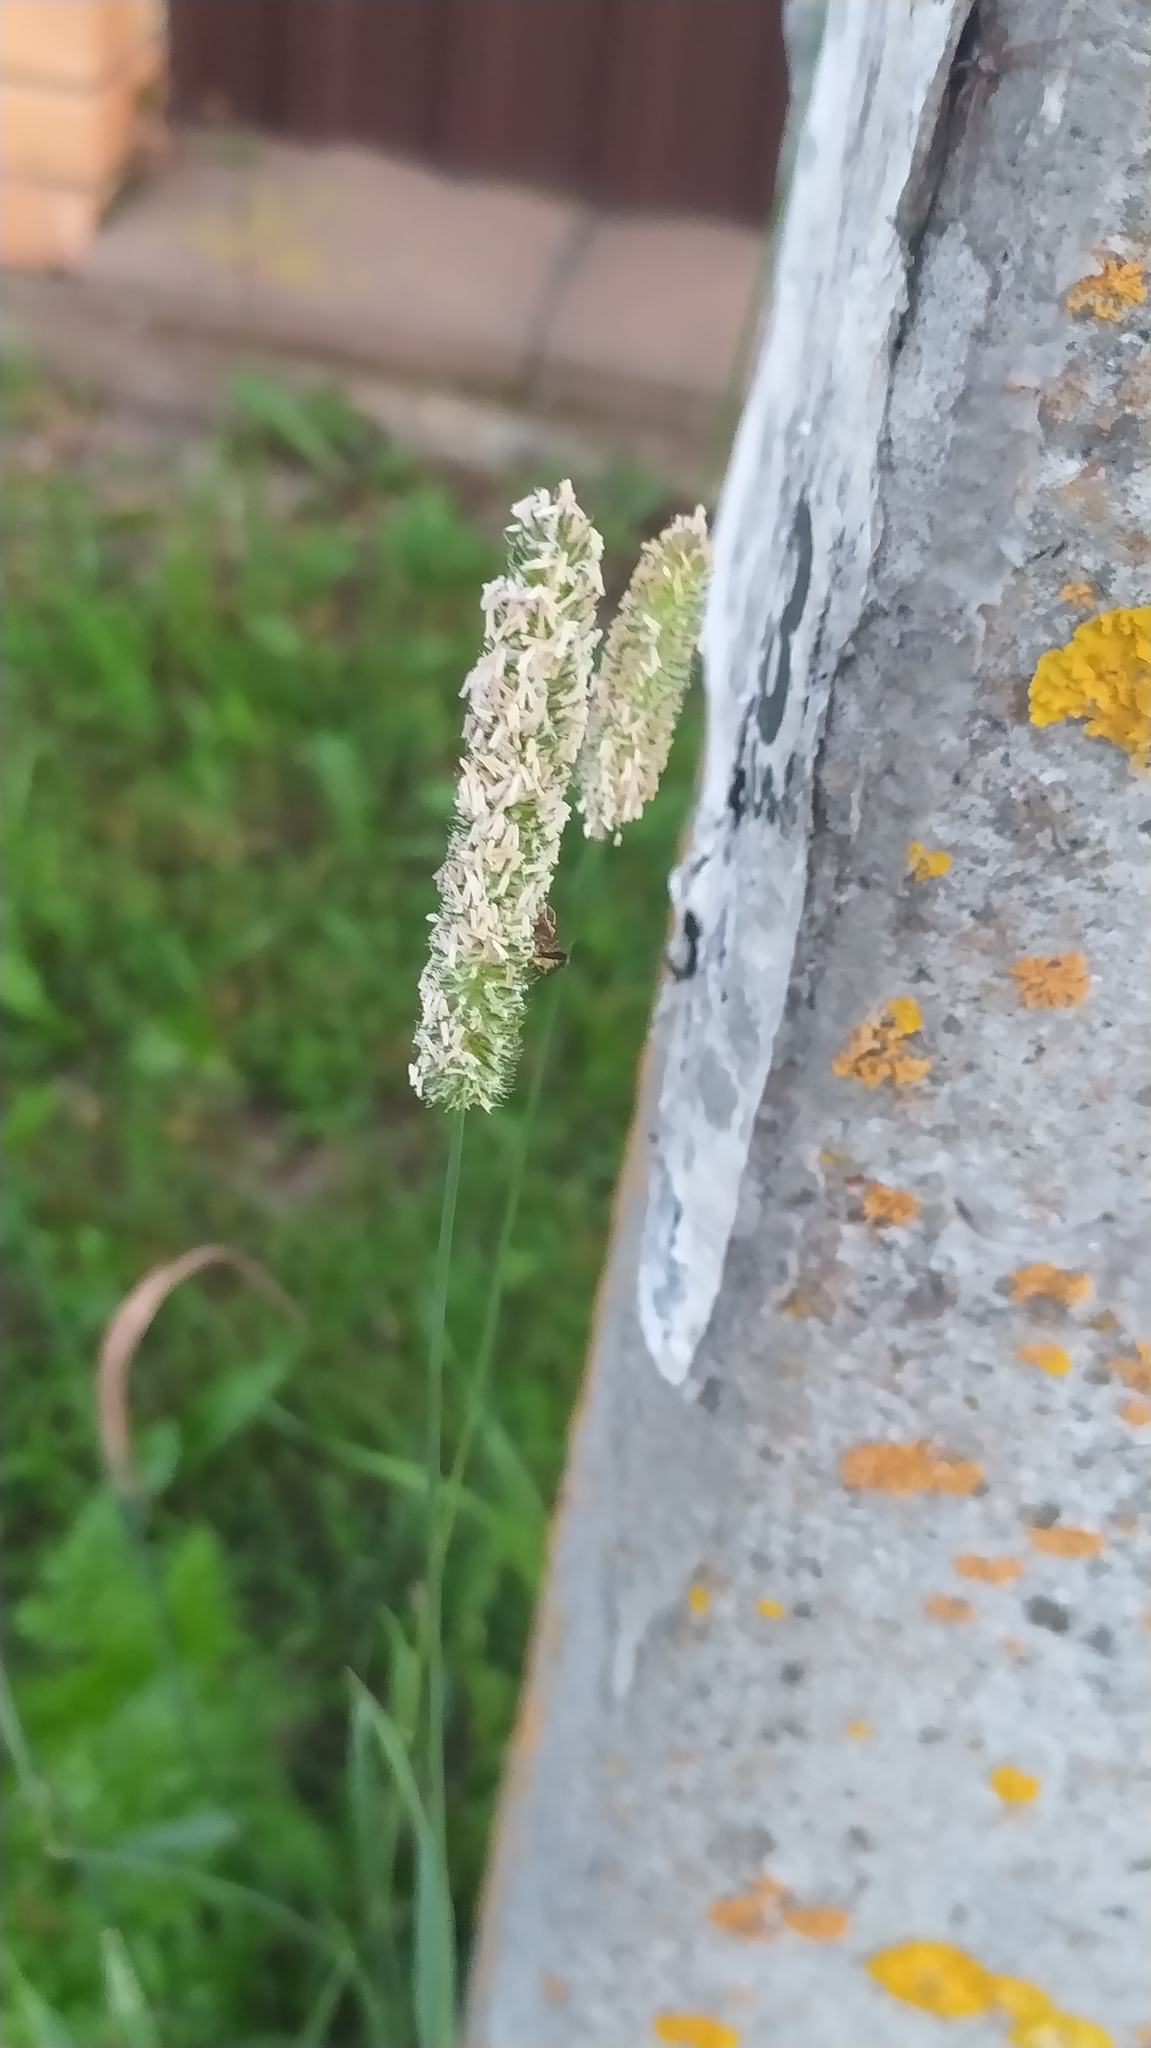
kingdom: Plantae
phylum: Tracheophyta
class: Liliopsida
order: Poales
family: Poaceae
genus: Phleum
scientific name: Phleum pratense
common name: Timothy grass
